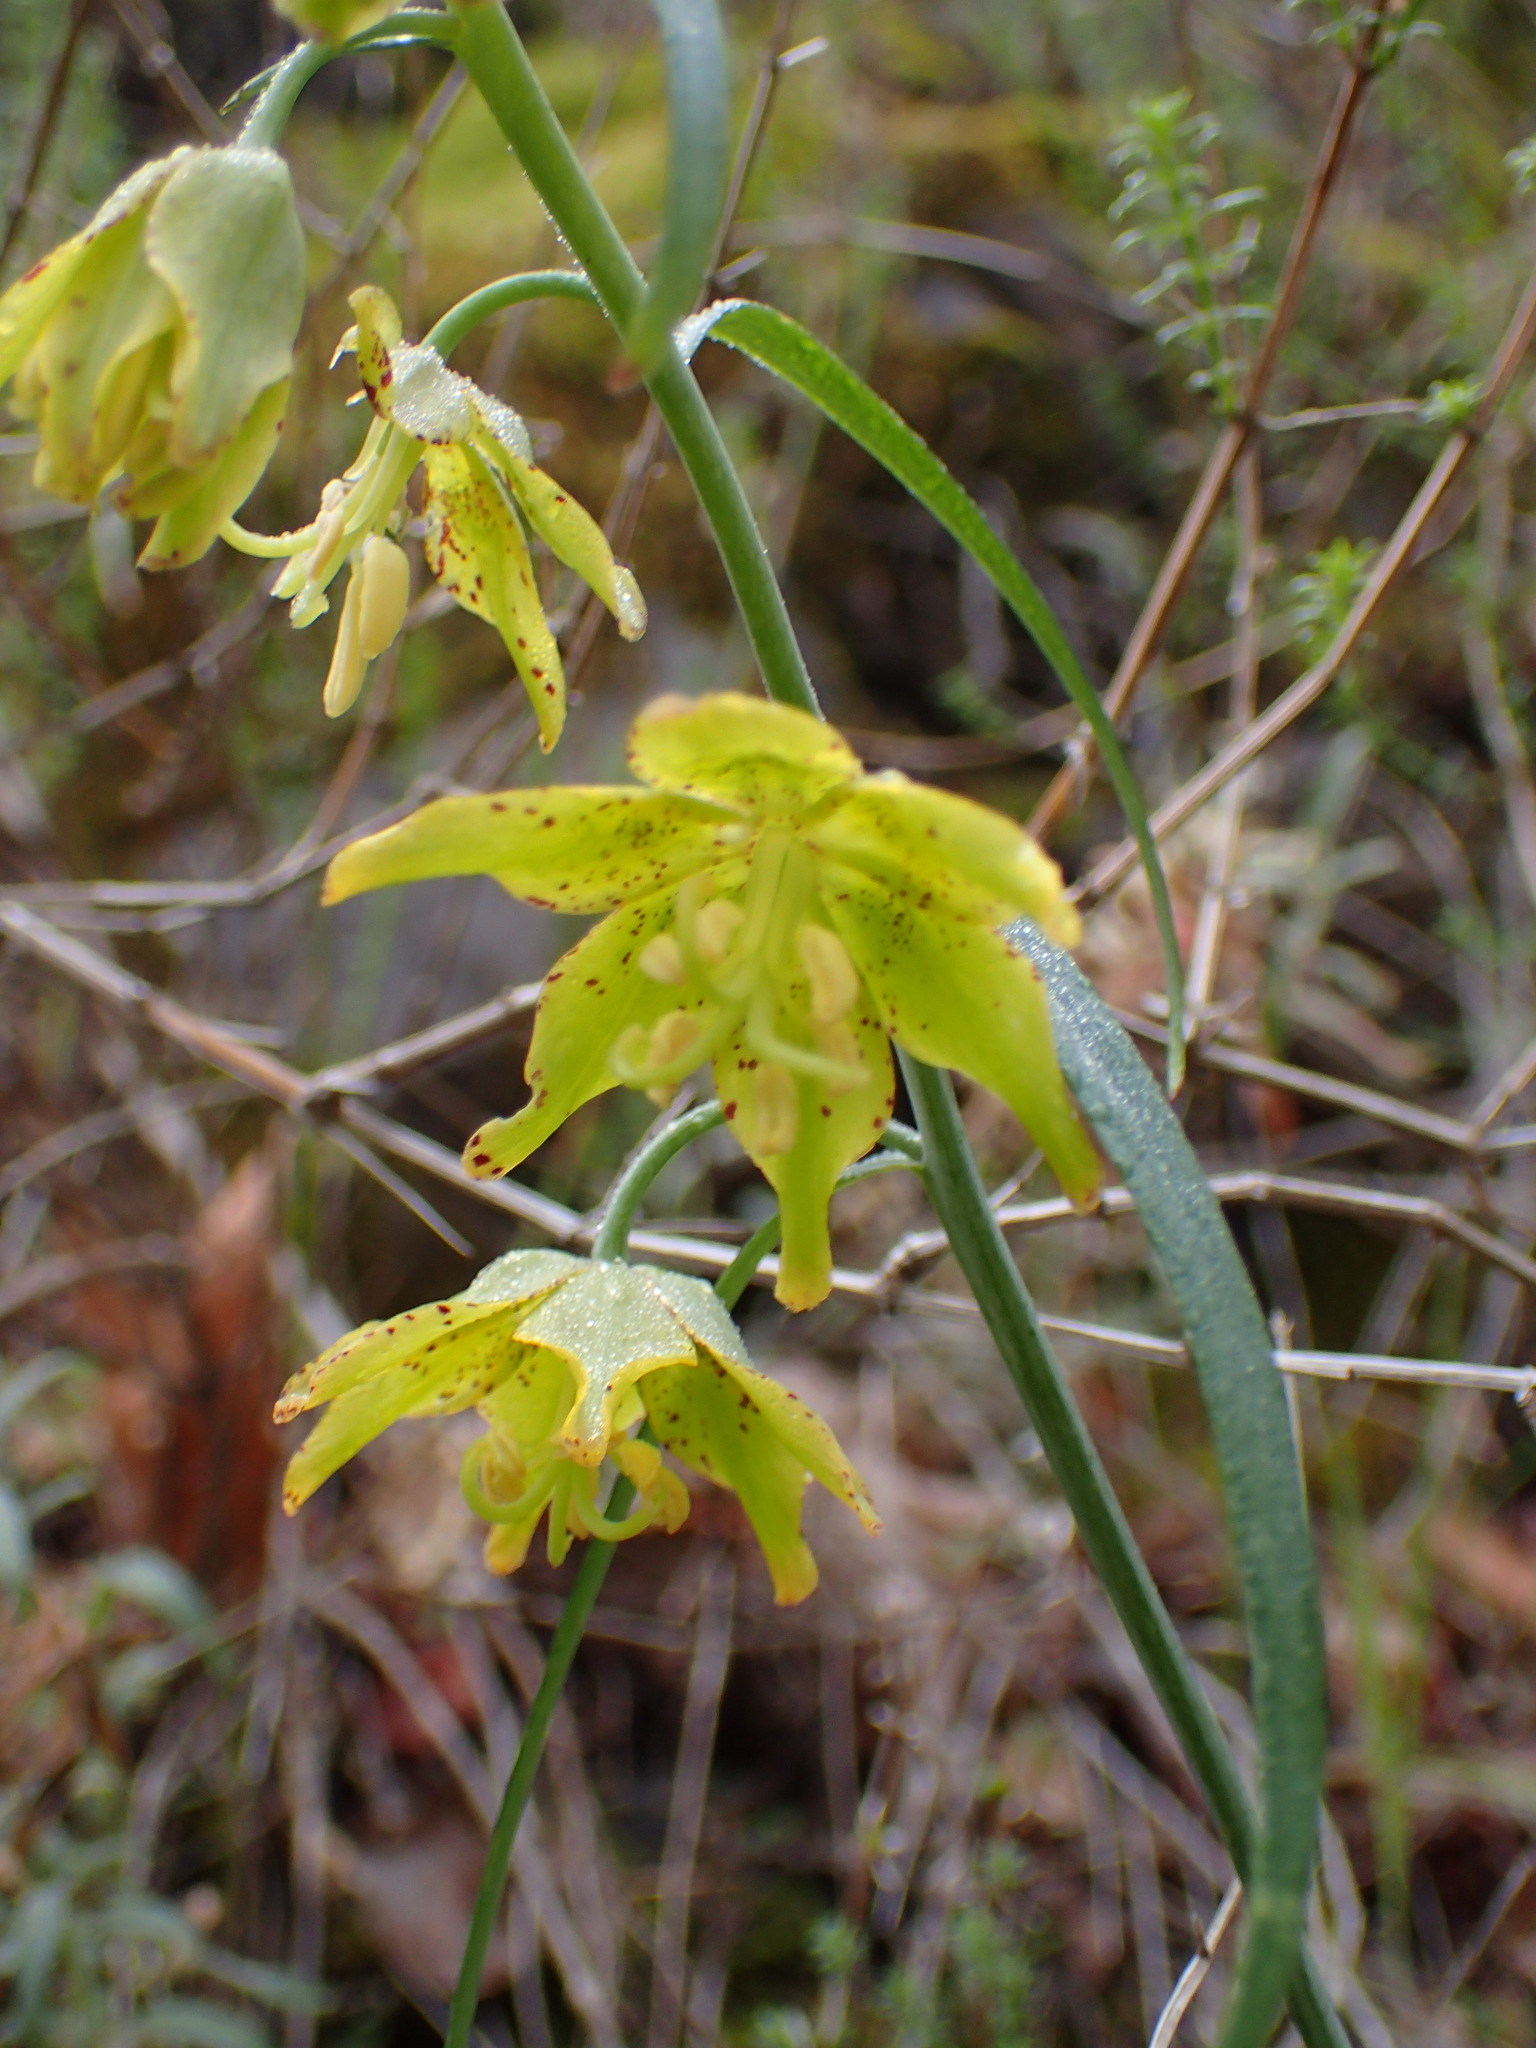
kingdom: Plantae
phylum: Tracheophyta
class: Liliopsida
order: Liliales
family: Liliaceae
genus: Fritillaria
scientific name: Fritillaria ojaiensis
